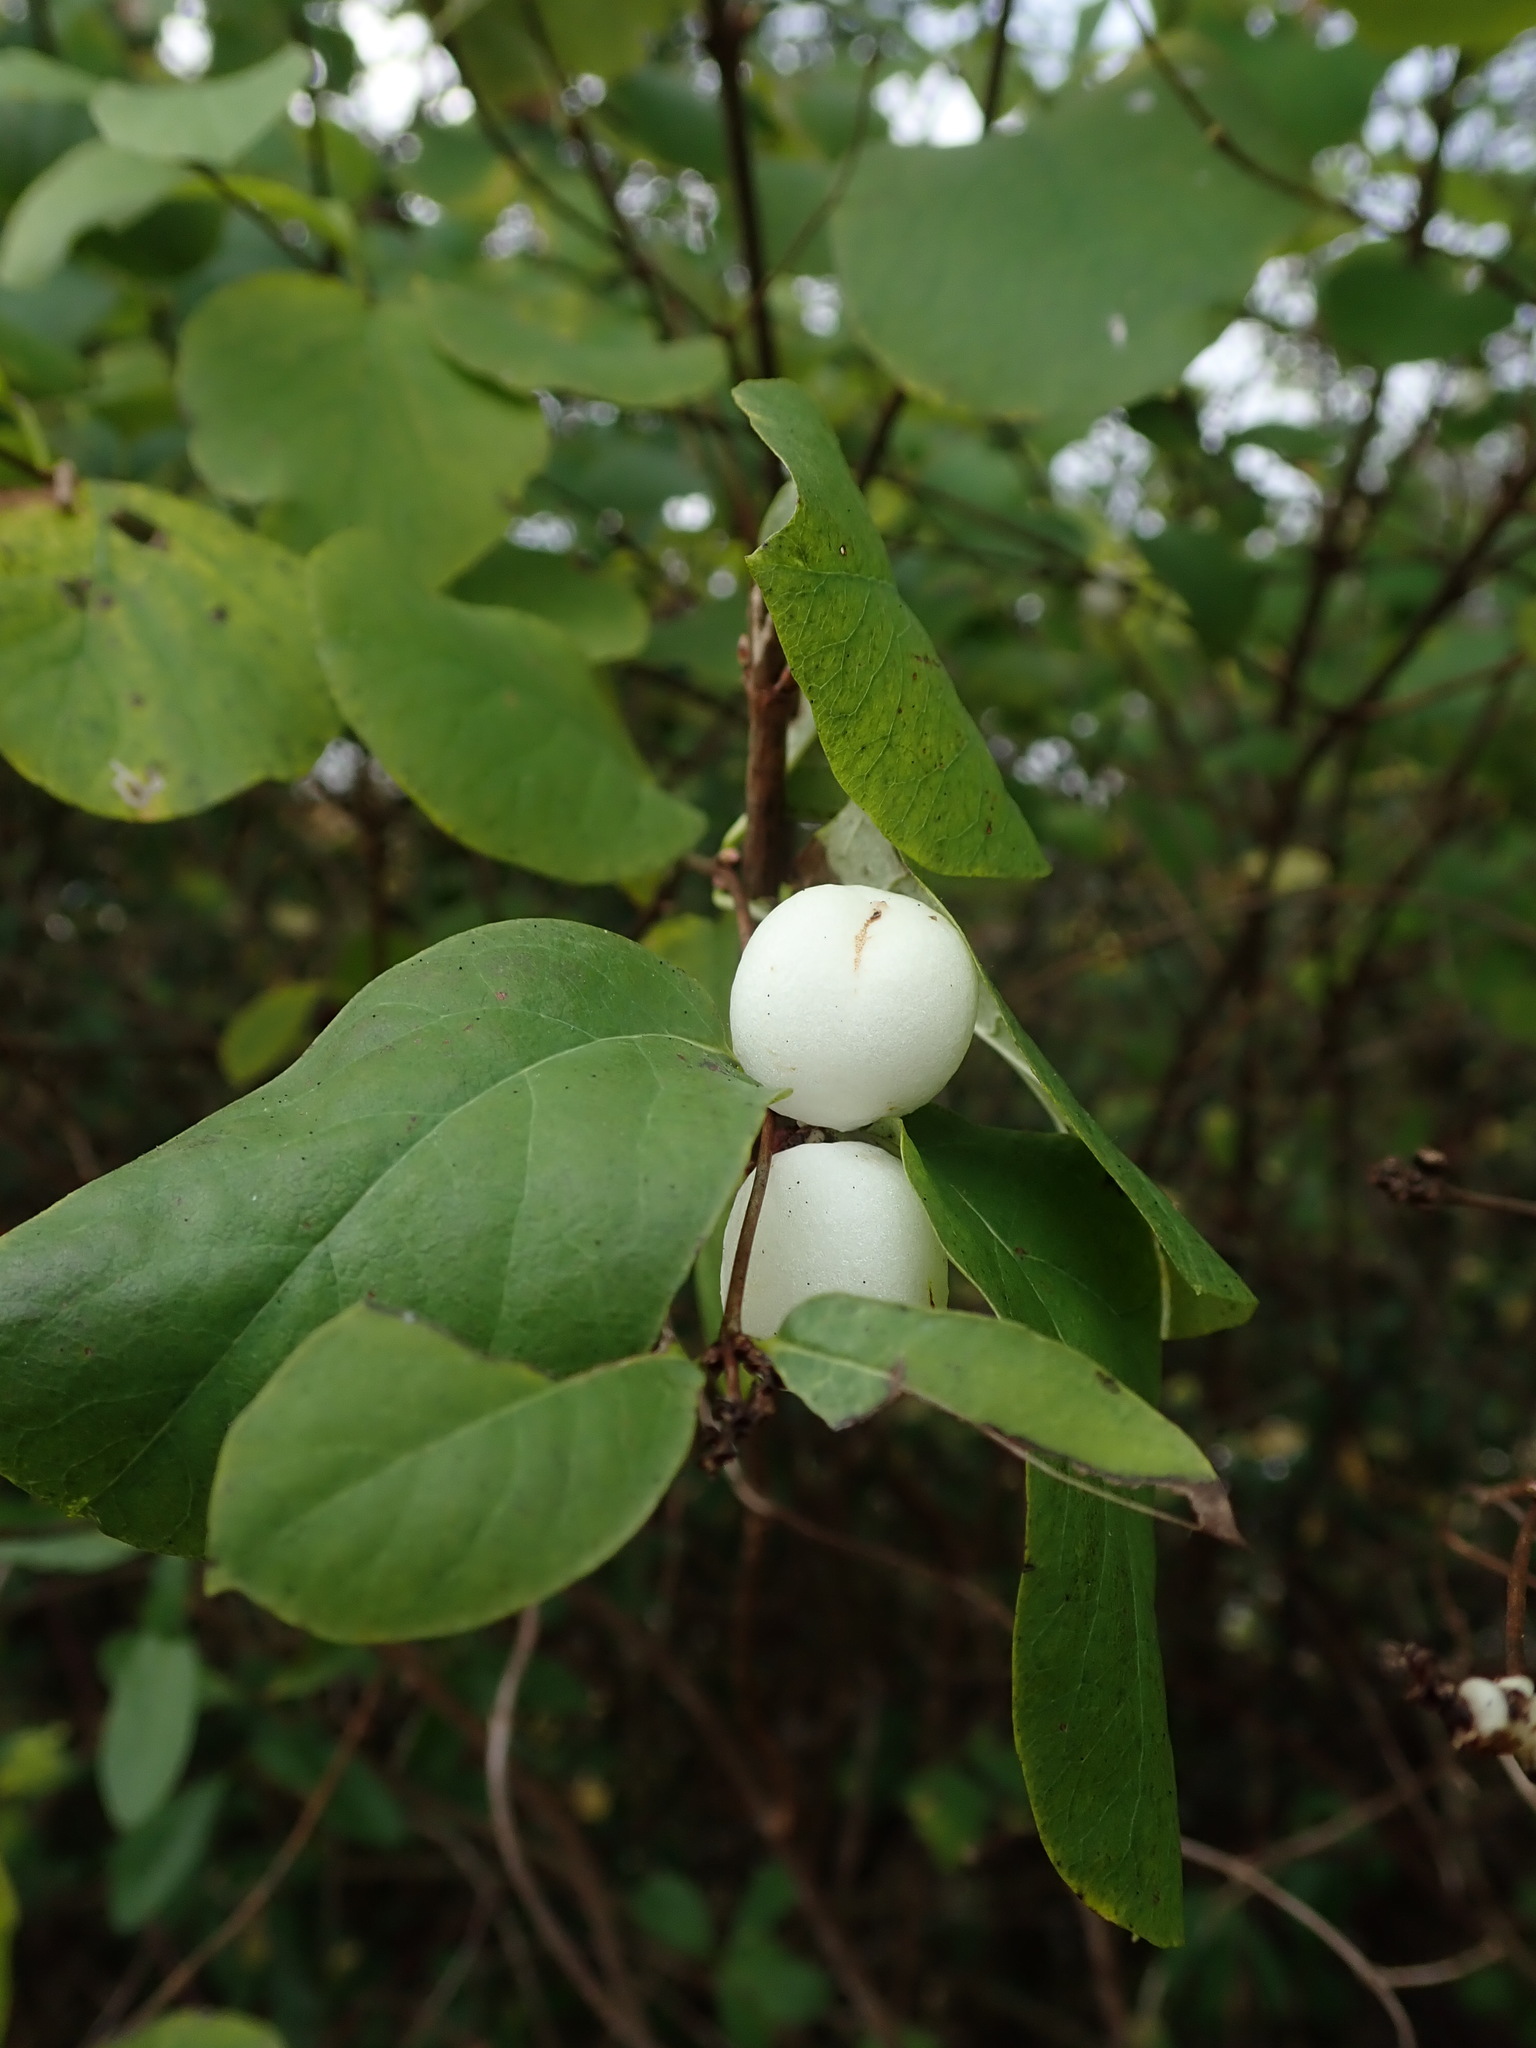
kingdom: Plantae
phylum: Tracheophyta
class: Magnoliopsida
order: Dipsacales
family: Caprifoliaceae
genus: Symphoricarpos
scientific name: Symphoricarpos albus
